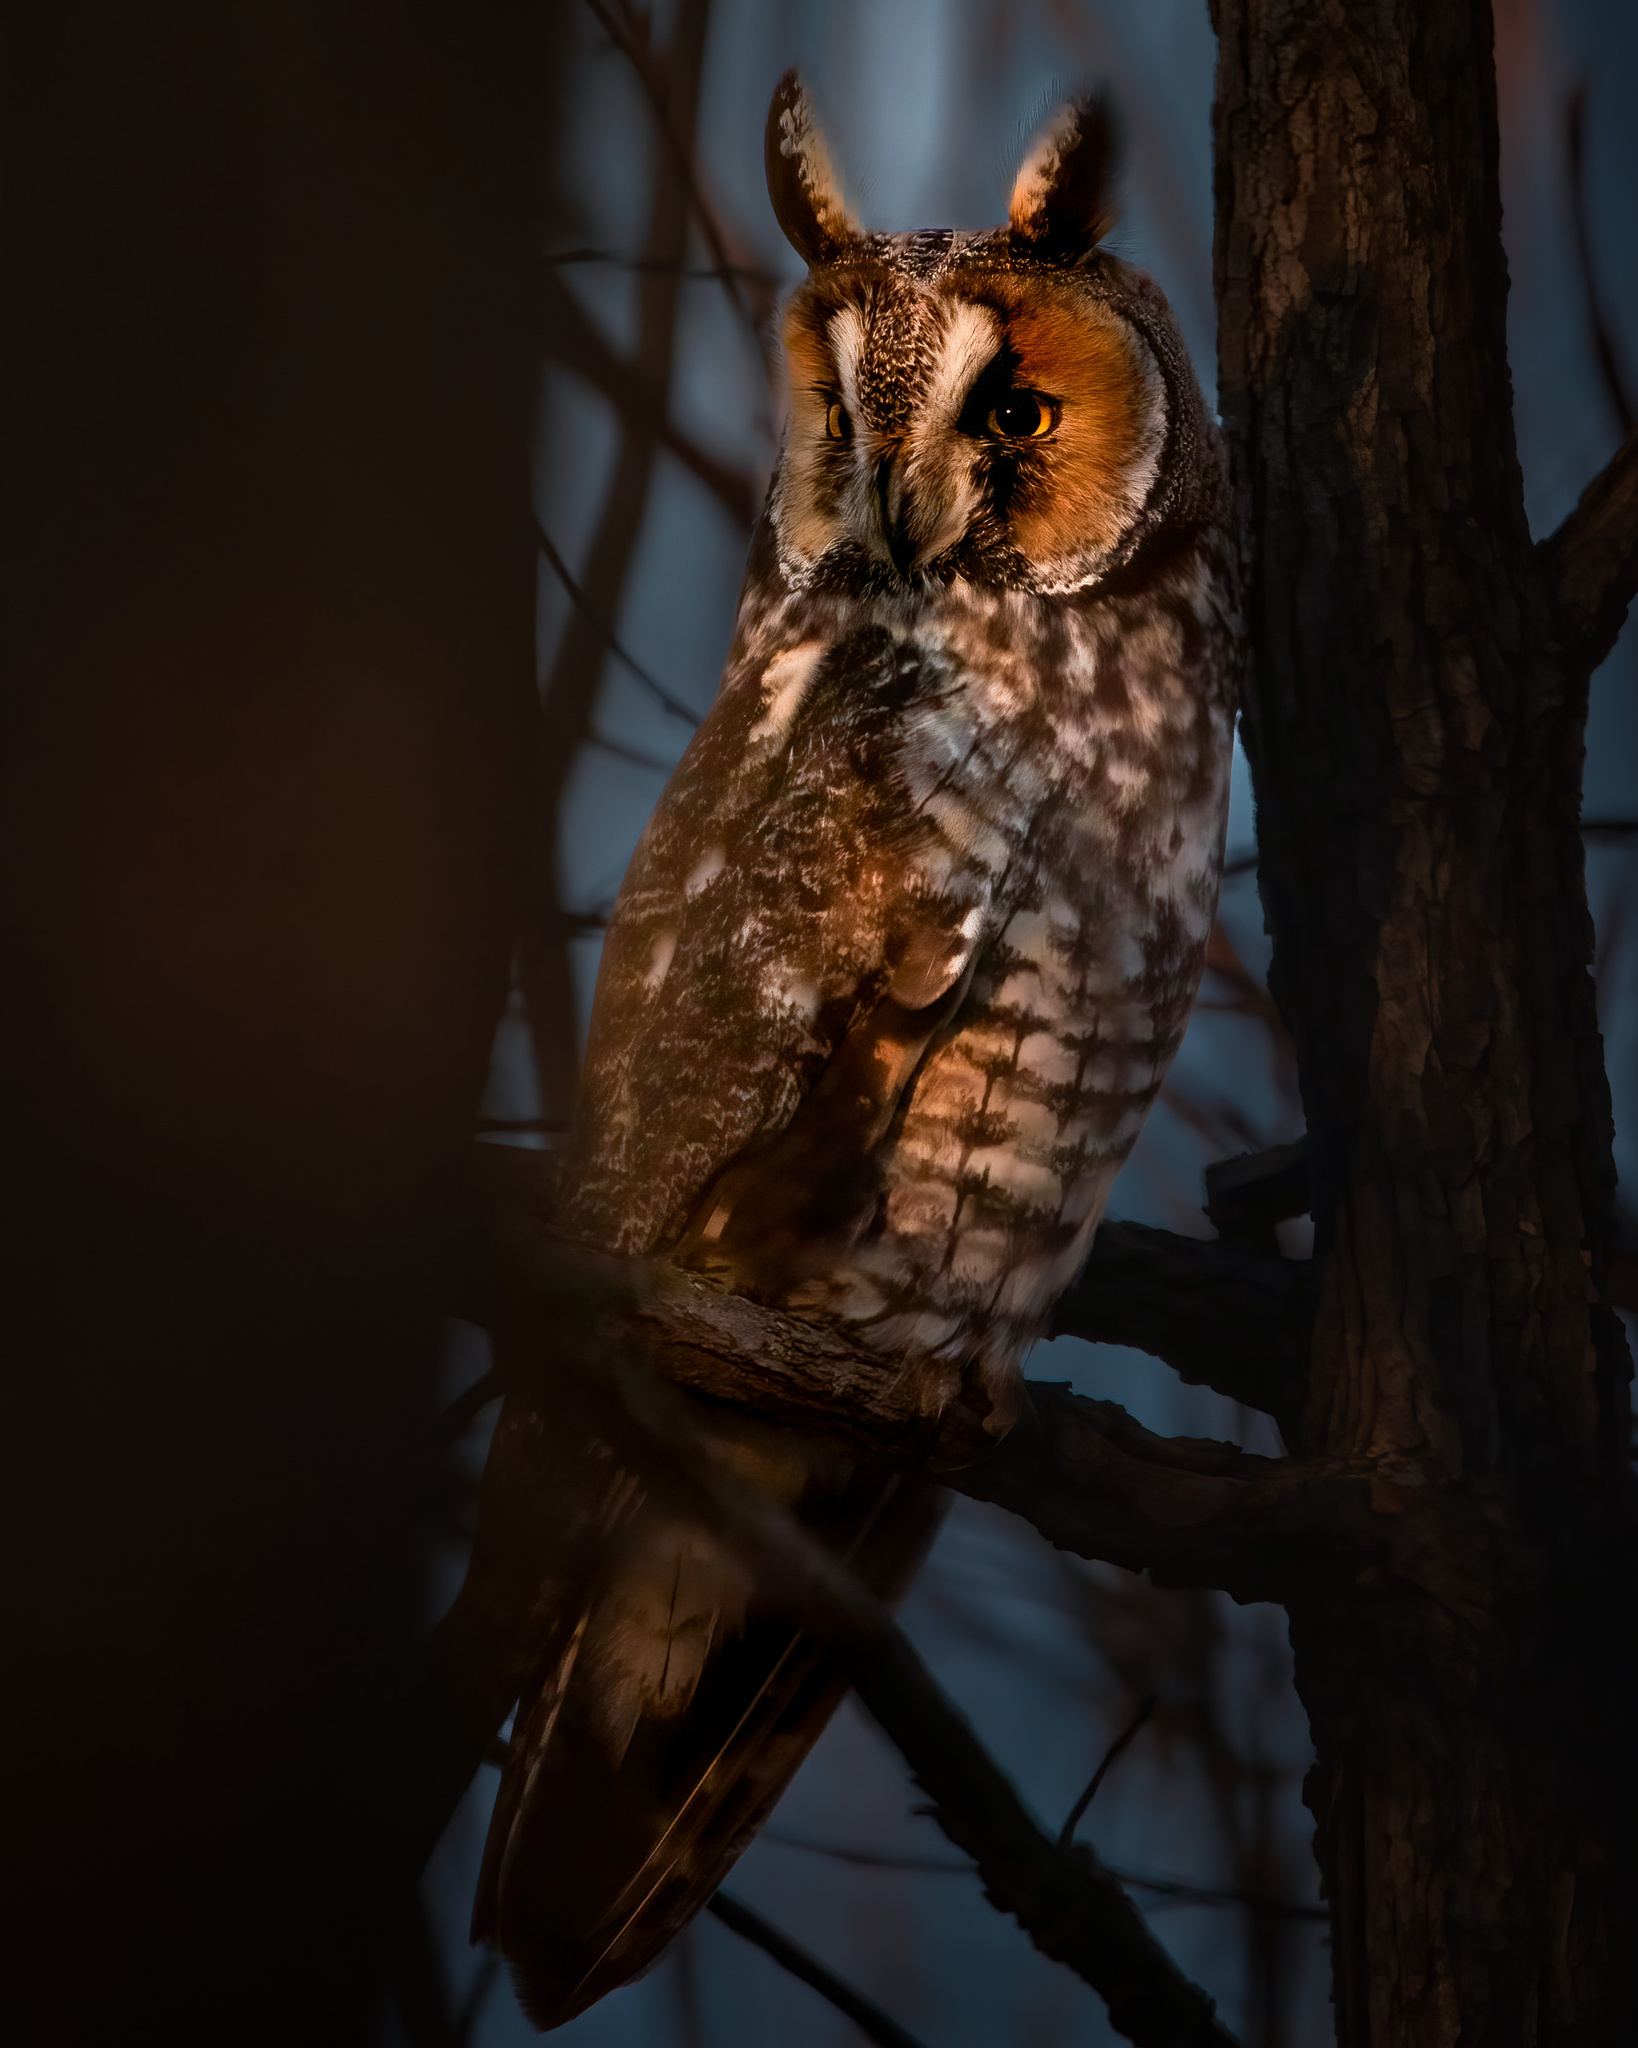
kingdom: Animalia
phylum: Chordata
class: Aves
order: Strigiformes
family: Strigidae
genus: Asio
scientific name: Asio otus
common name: Long-eared owl
